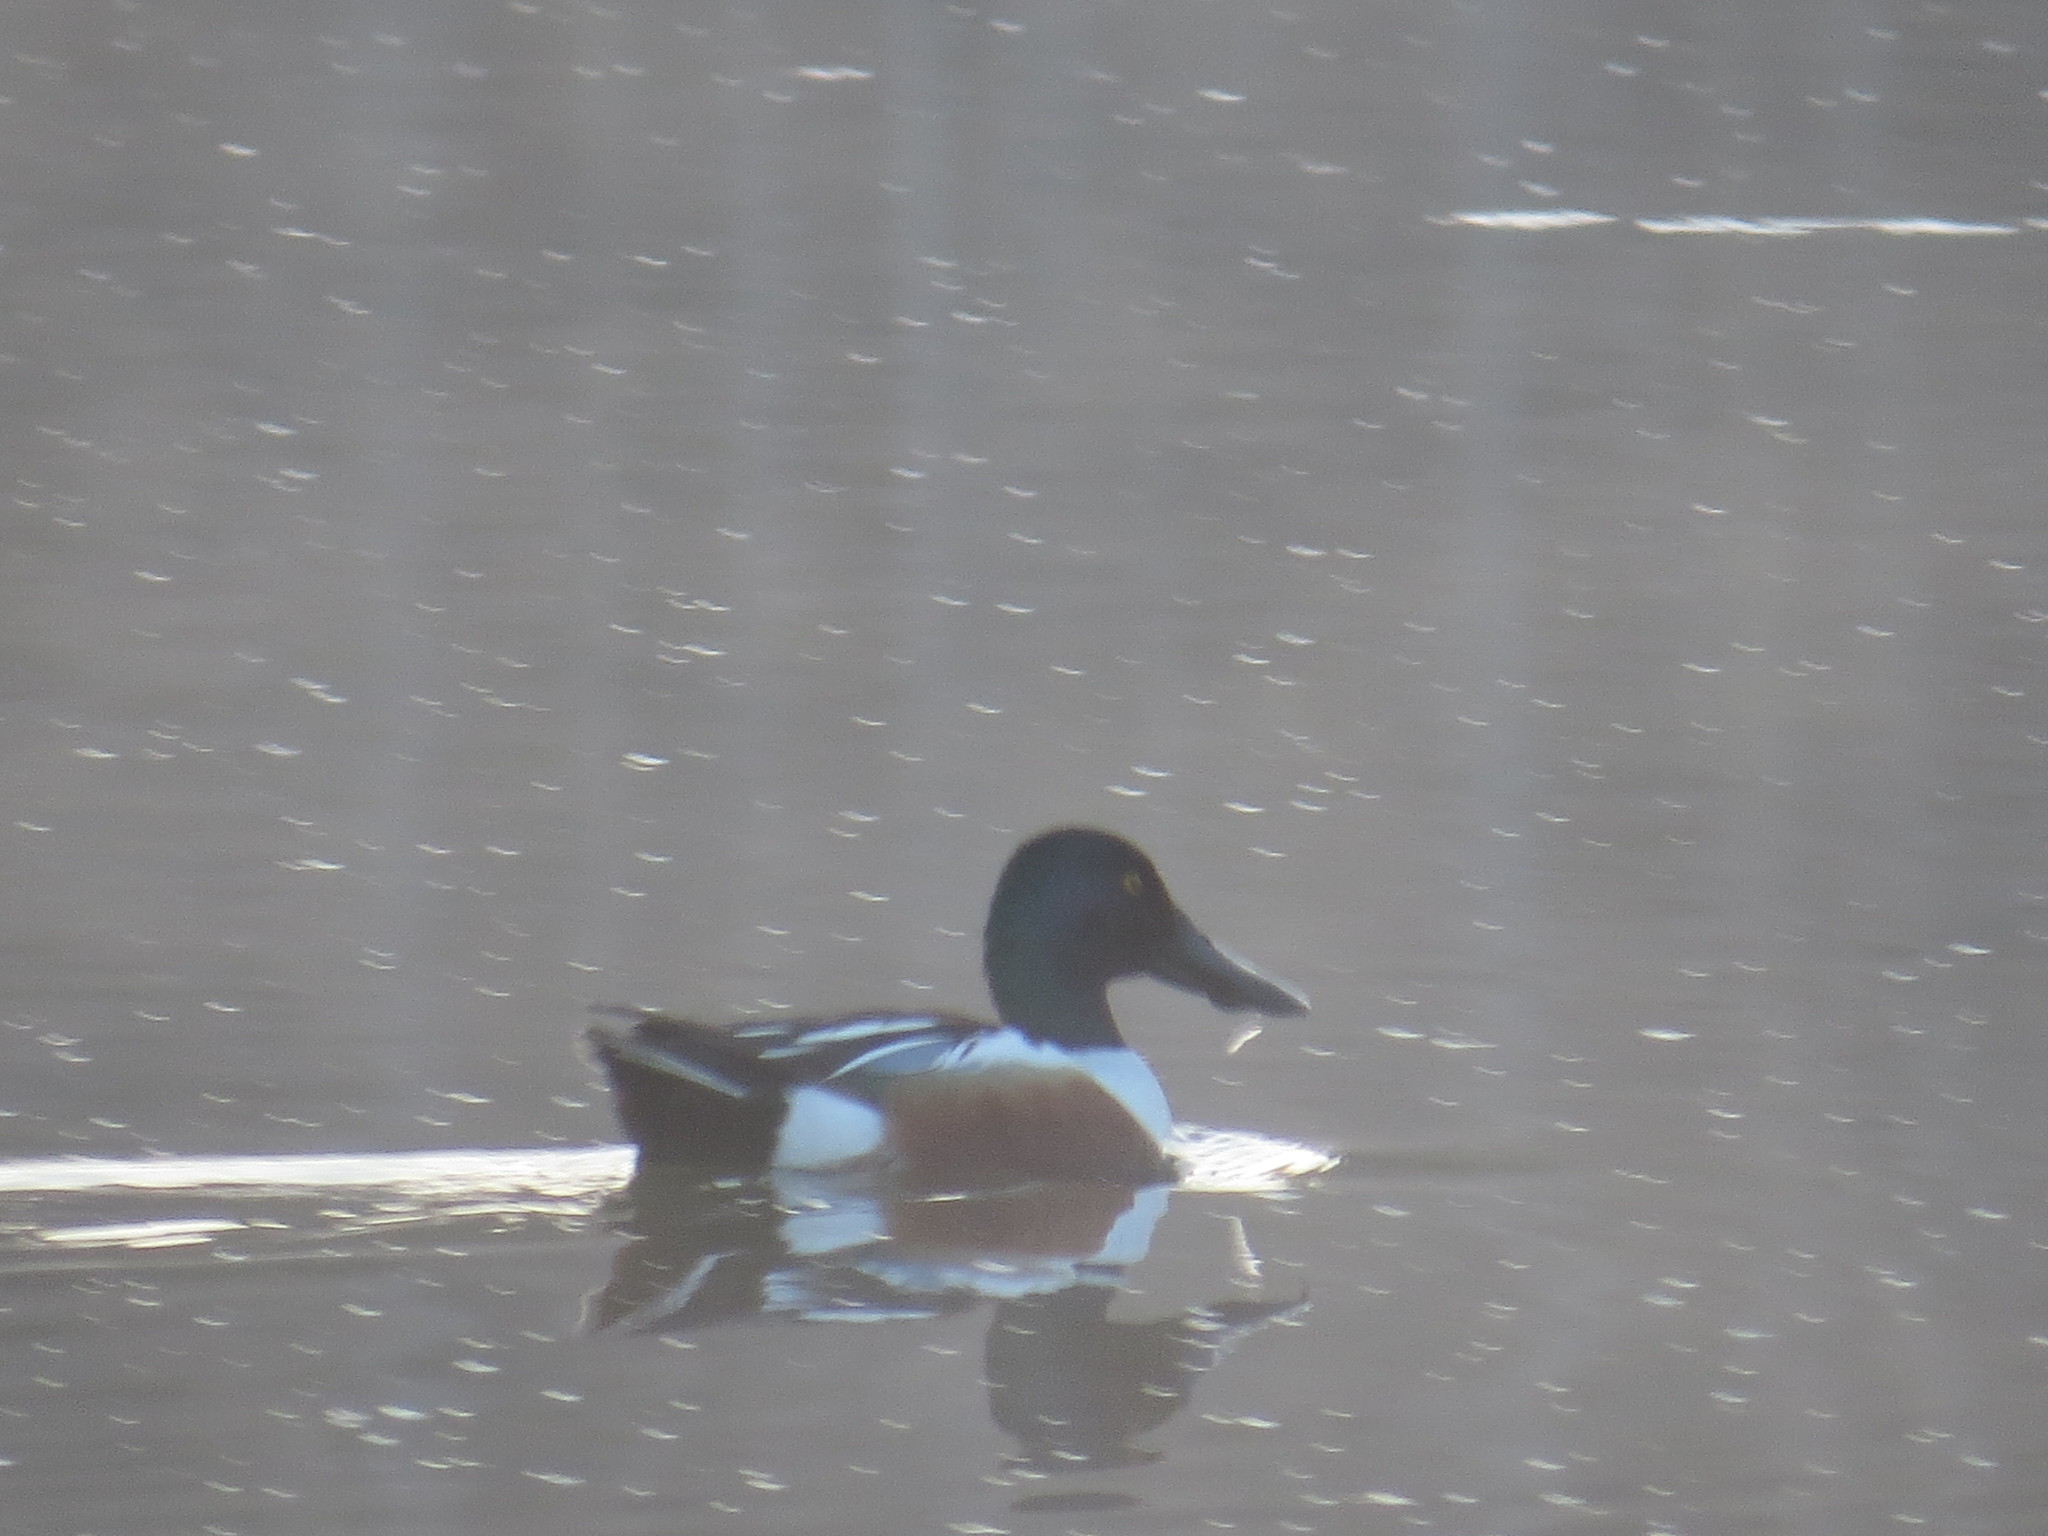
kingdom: Animalia
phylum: Chordata
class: Aves
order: Anseriformes
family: Anatidae
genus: Spatula
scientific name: Spatula clypeata
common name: Northern shoveler
